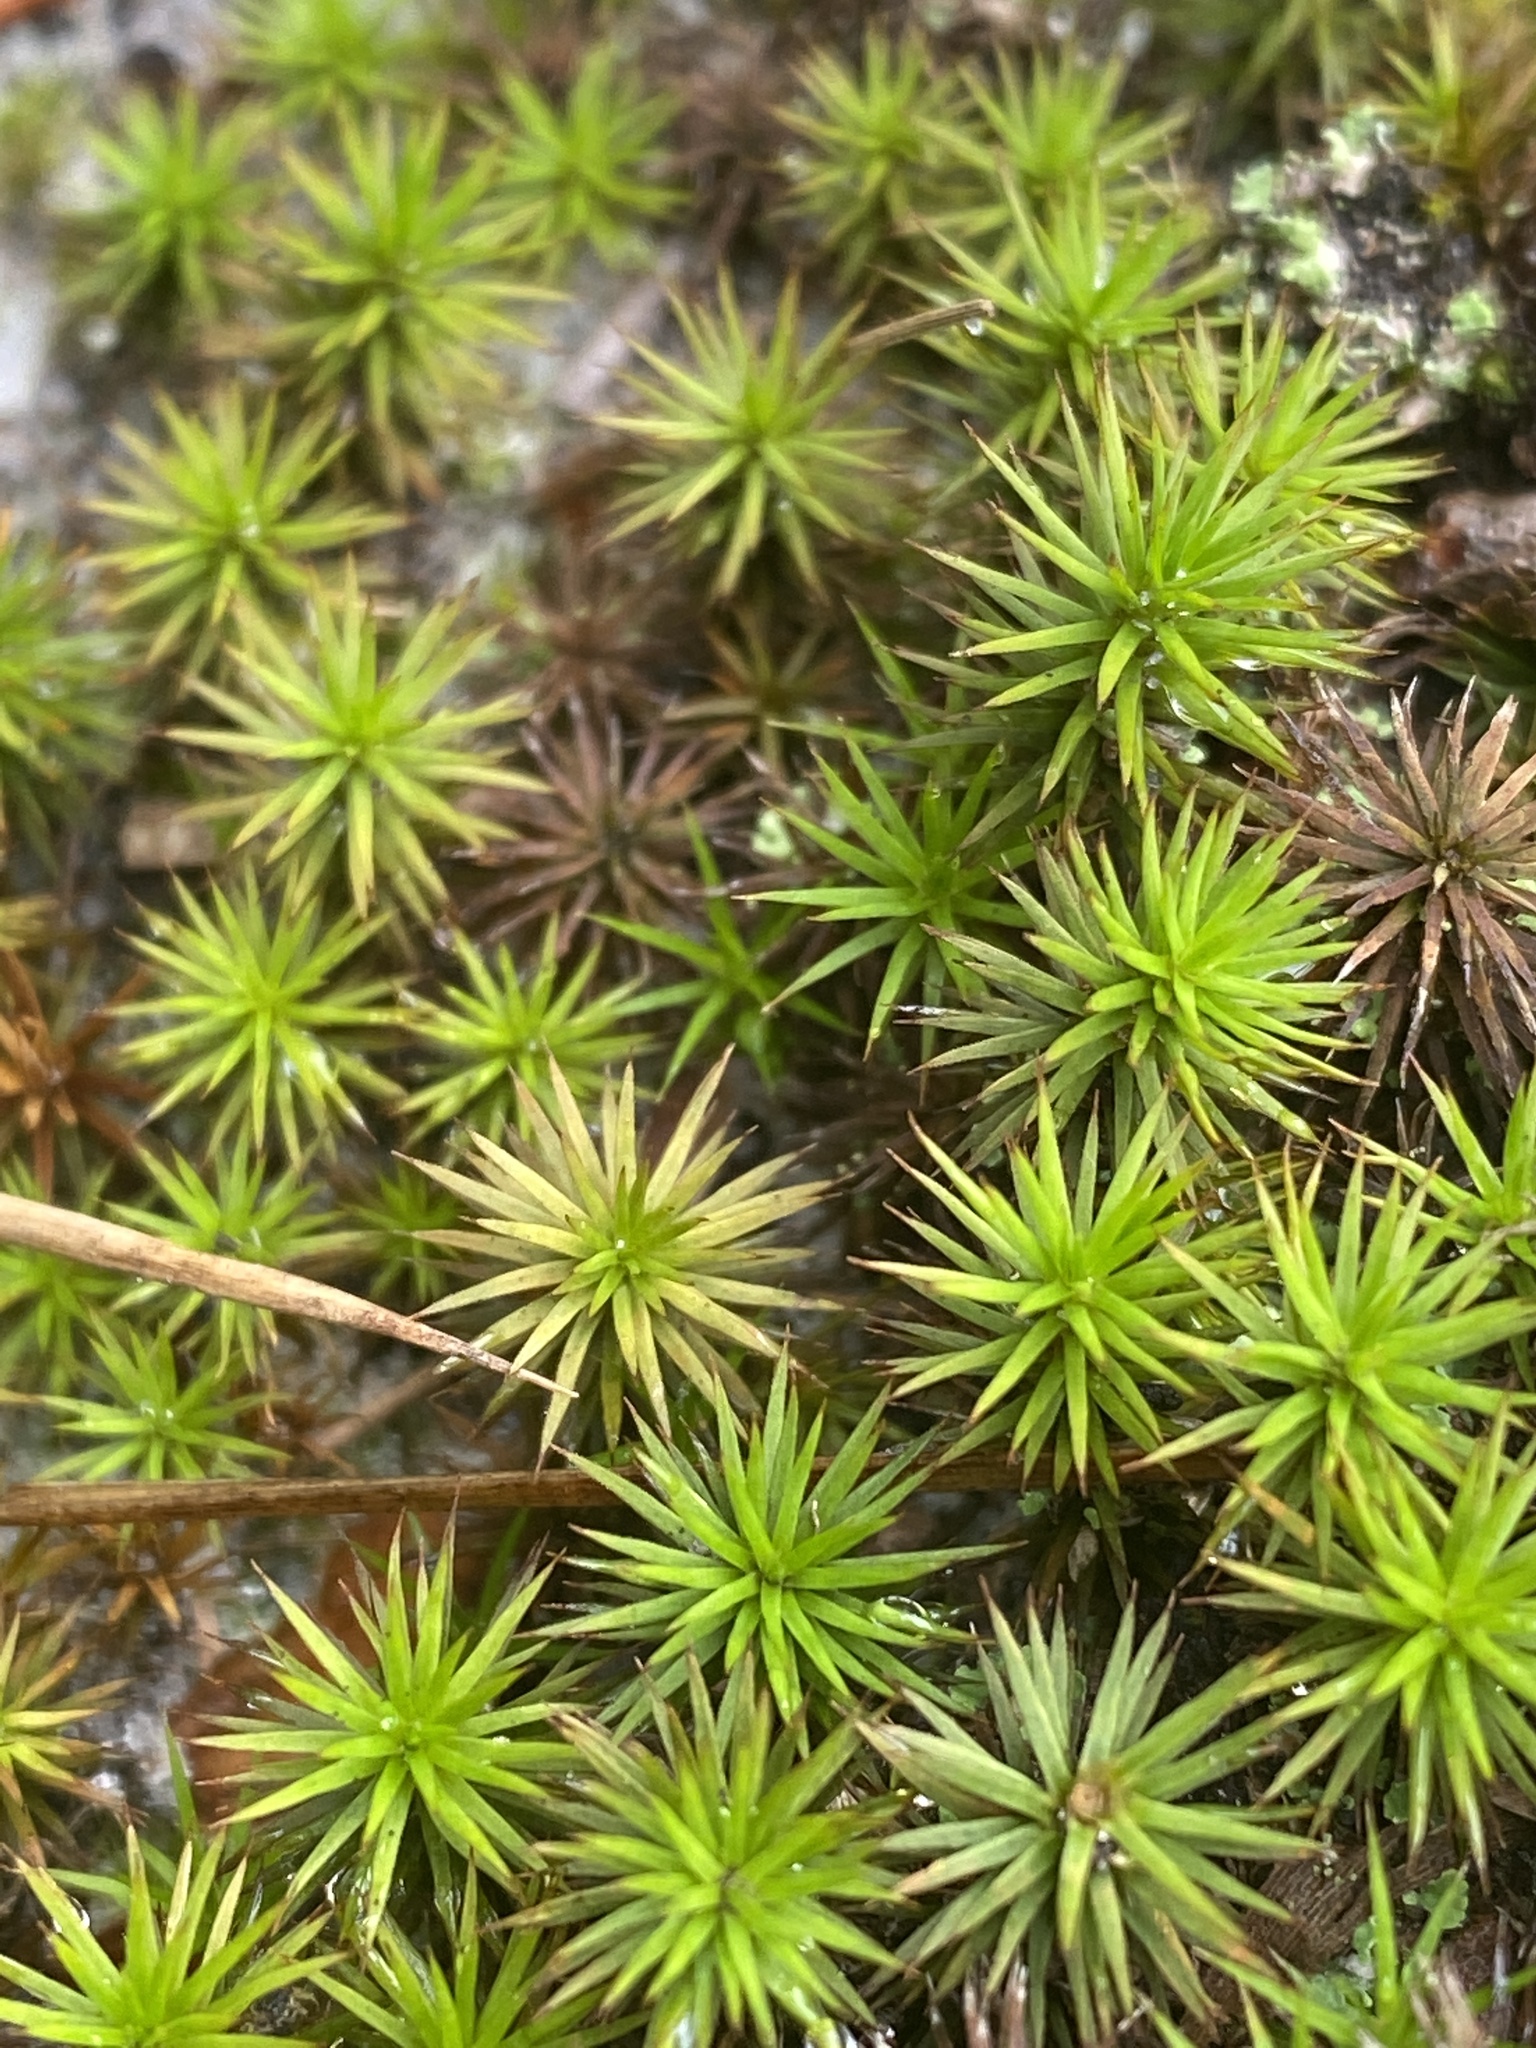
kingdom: Plantae
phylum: Bryophyta
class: Polytrichopsida
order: Polytrichales
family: Polytrichaceae
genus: Polytrichum
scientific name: Polytrichum commune
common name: Common haircap
